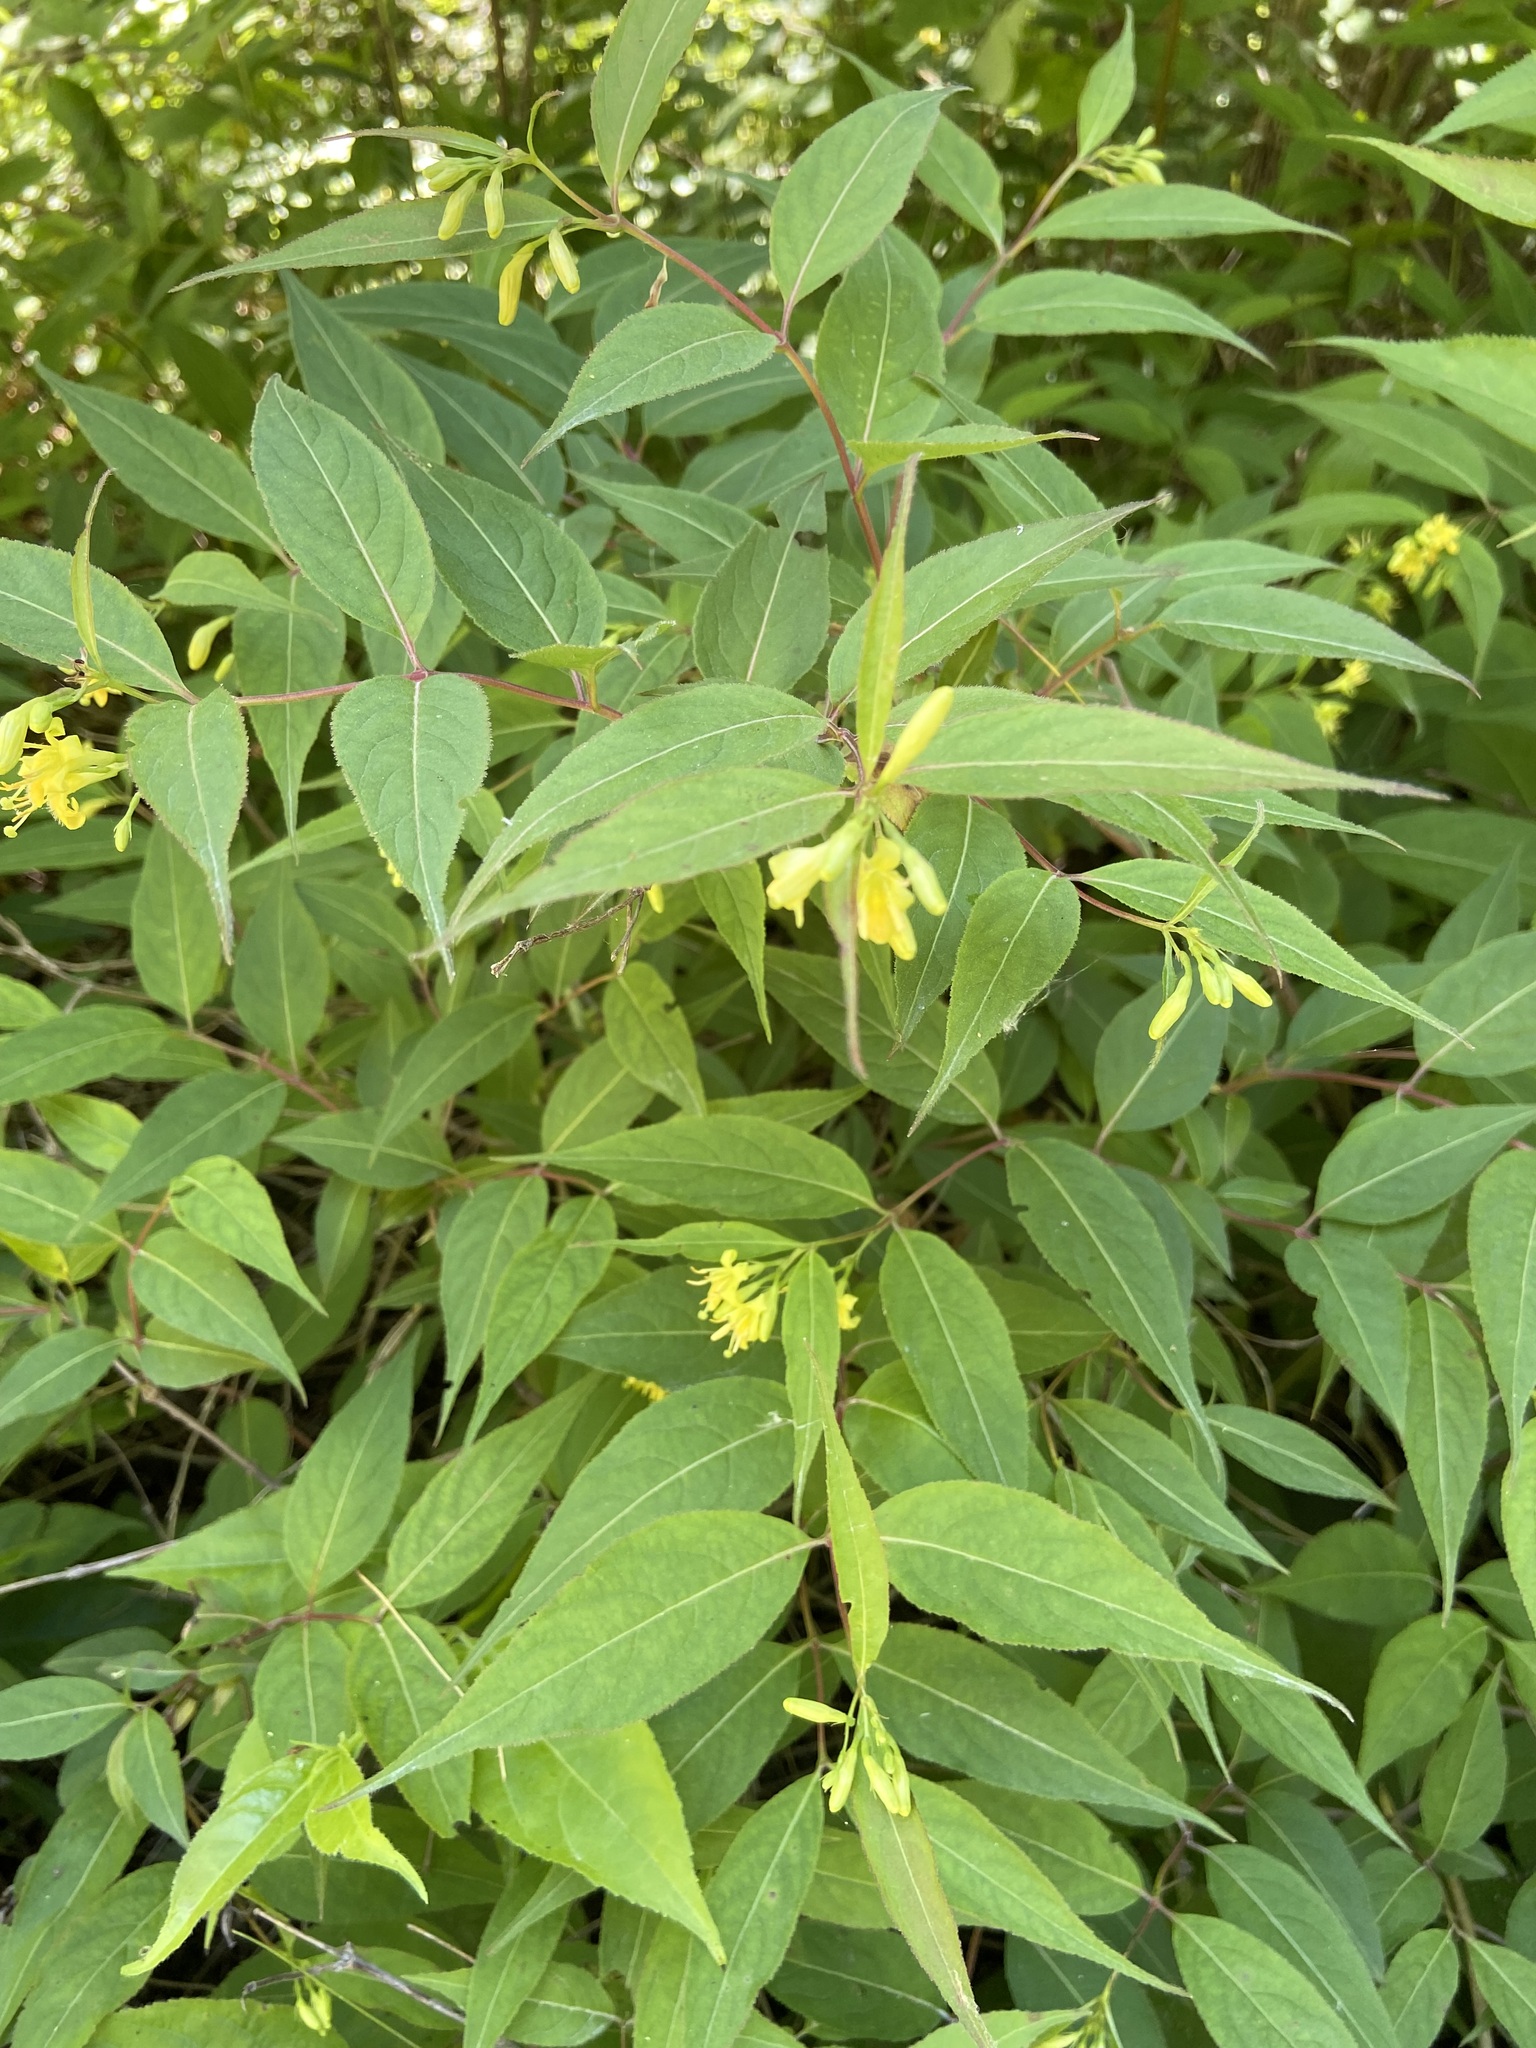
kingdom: Plantae
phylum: Tracheophyta
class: Magnoliopsida
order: Dipsacales
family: Caprifoliaceae
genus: Diervilla
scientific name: Diervilla lonicera
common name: Bush-honeysuckle
